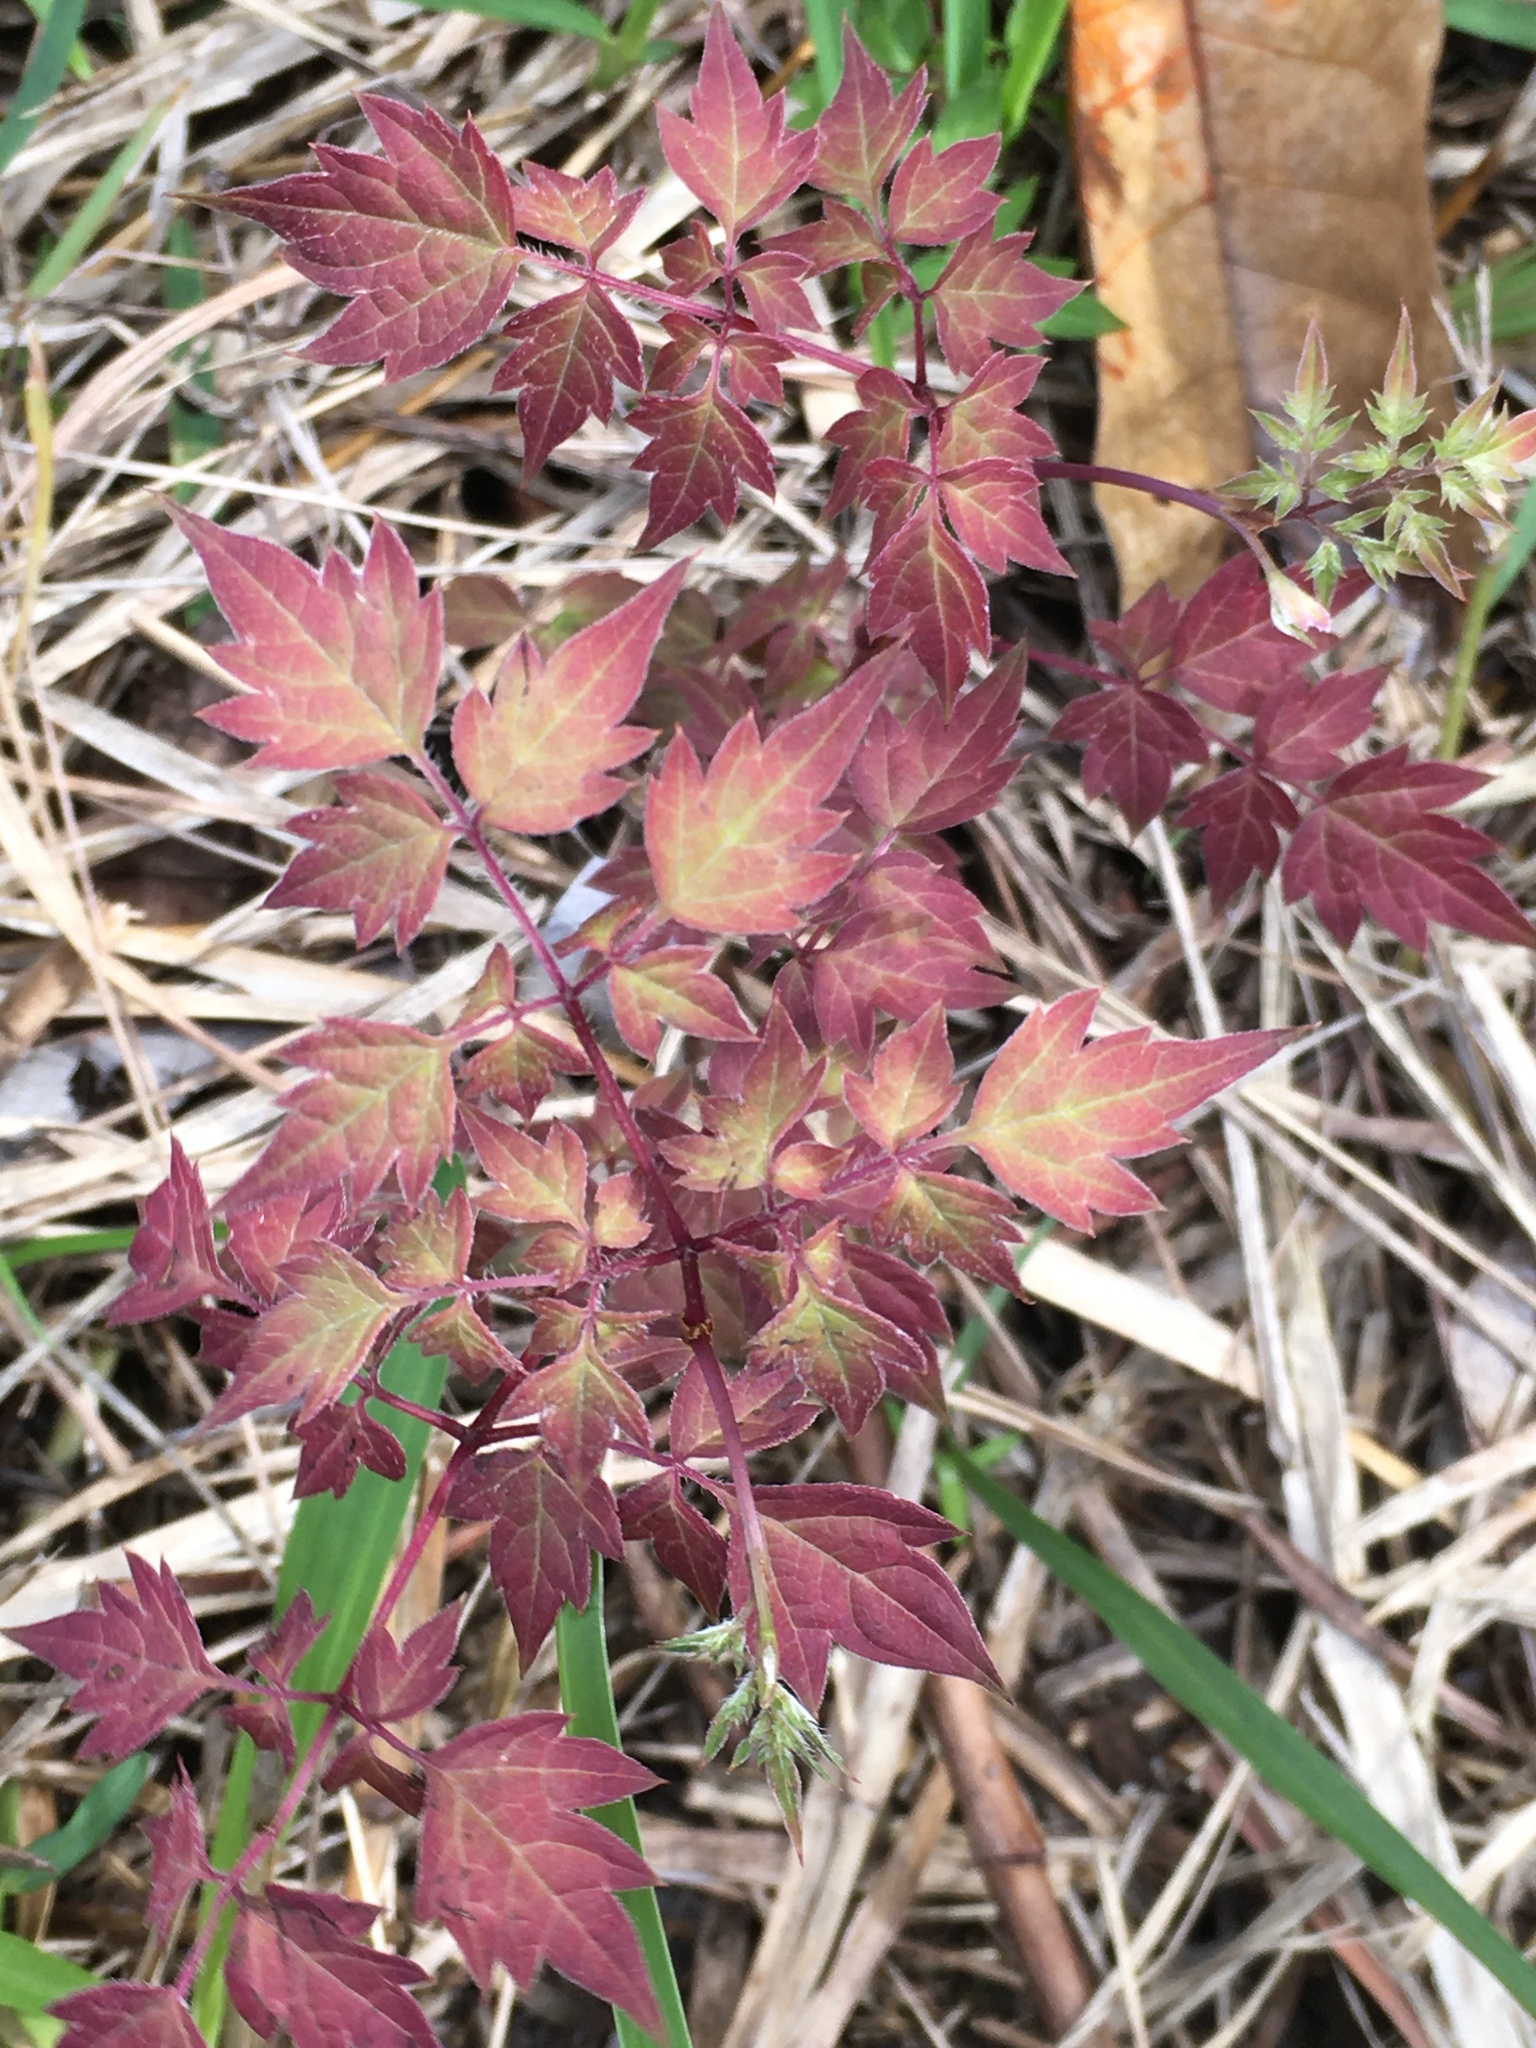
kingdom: Plantae
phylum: Tracheophyta
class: Magnoliopsida
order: Vitales
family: Vitaceae
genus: Nekemias
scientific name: Nekemias arborea
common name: Peppervine
